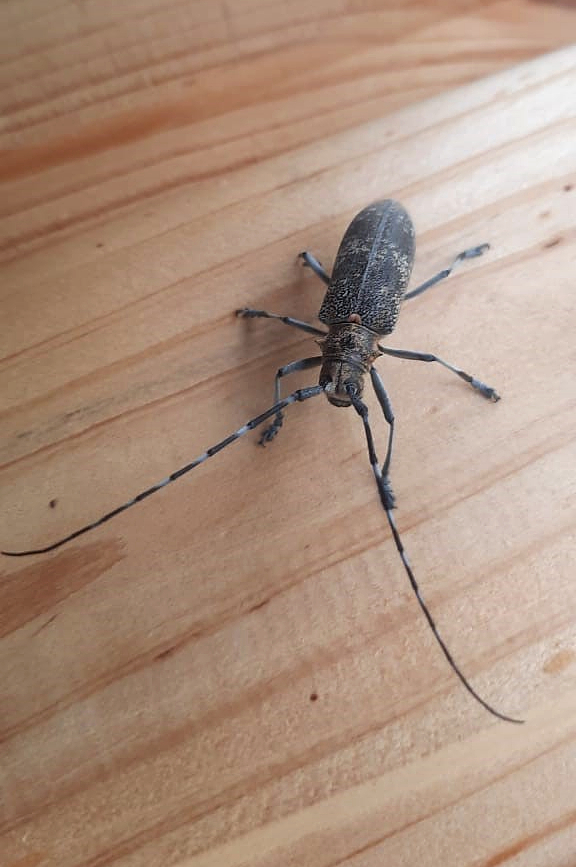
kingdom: Animalia
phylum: Arthropoda
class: Insecta
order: Coleoptera
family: Cerambycidae
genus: Monochamus
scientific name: Monochamus galloprovincialis
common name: Pine sawyer
